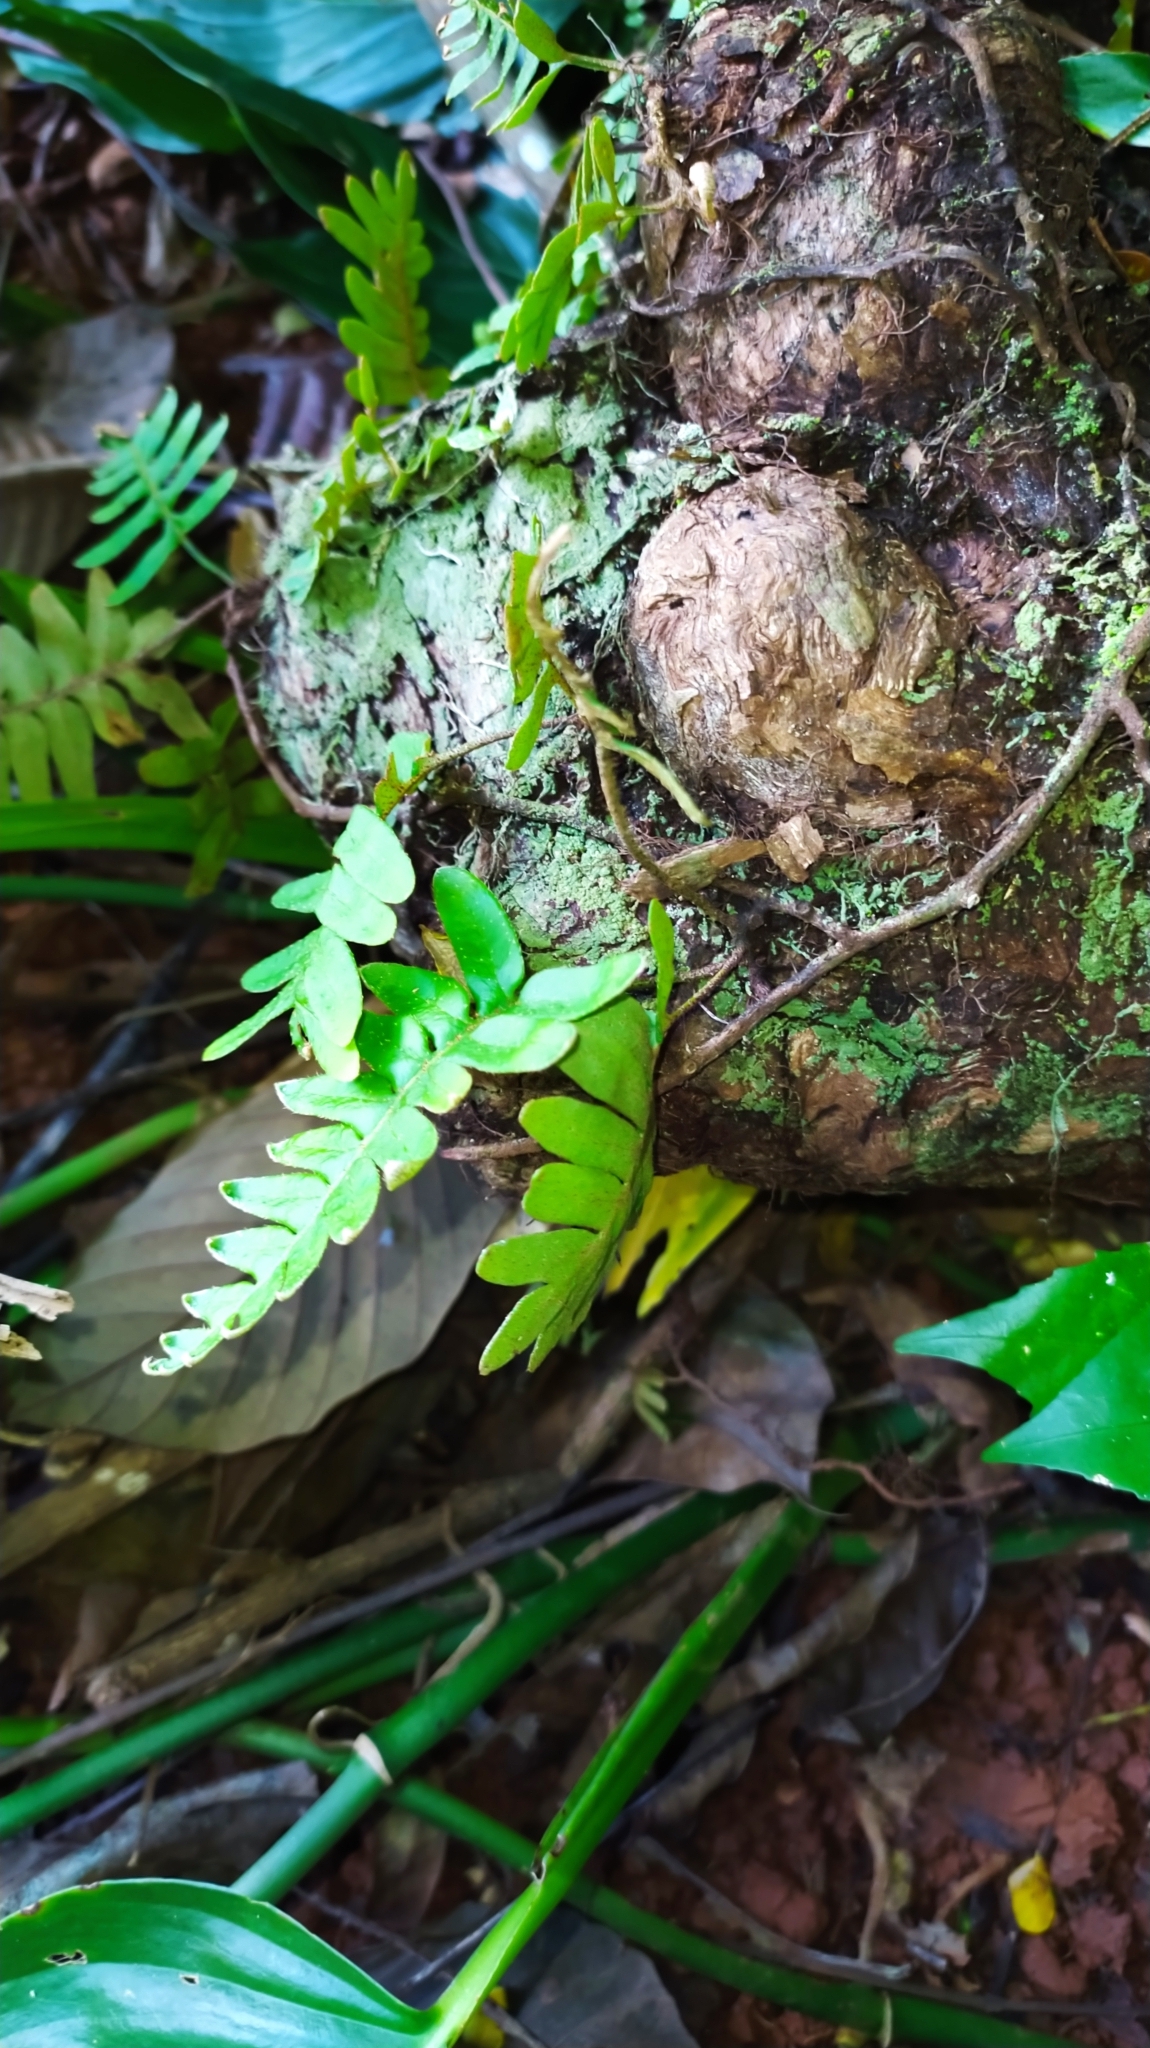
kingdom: Plantae
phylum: Tracheophyta
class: Polypodiopsida
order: Polypodiales
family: Polypodiaceae
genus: Pleopeltis
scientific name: Pleopeltis burchellii
